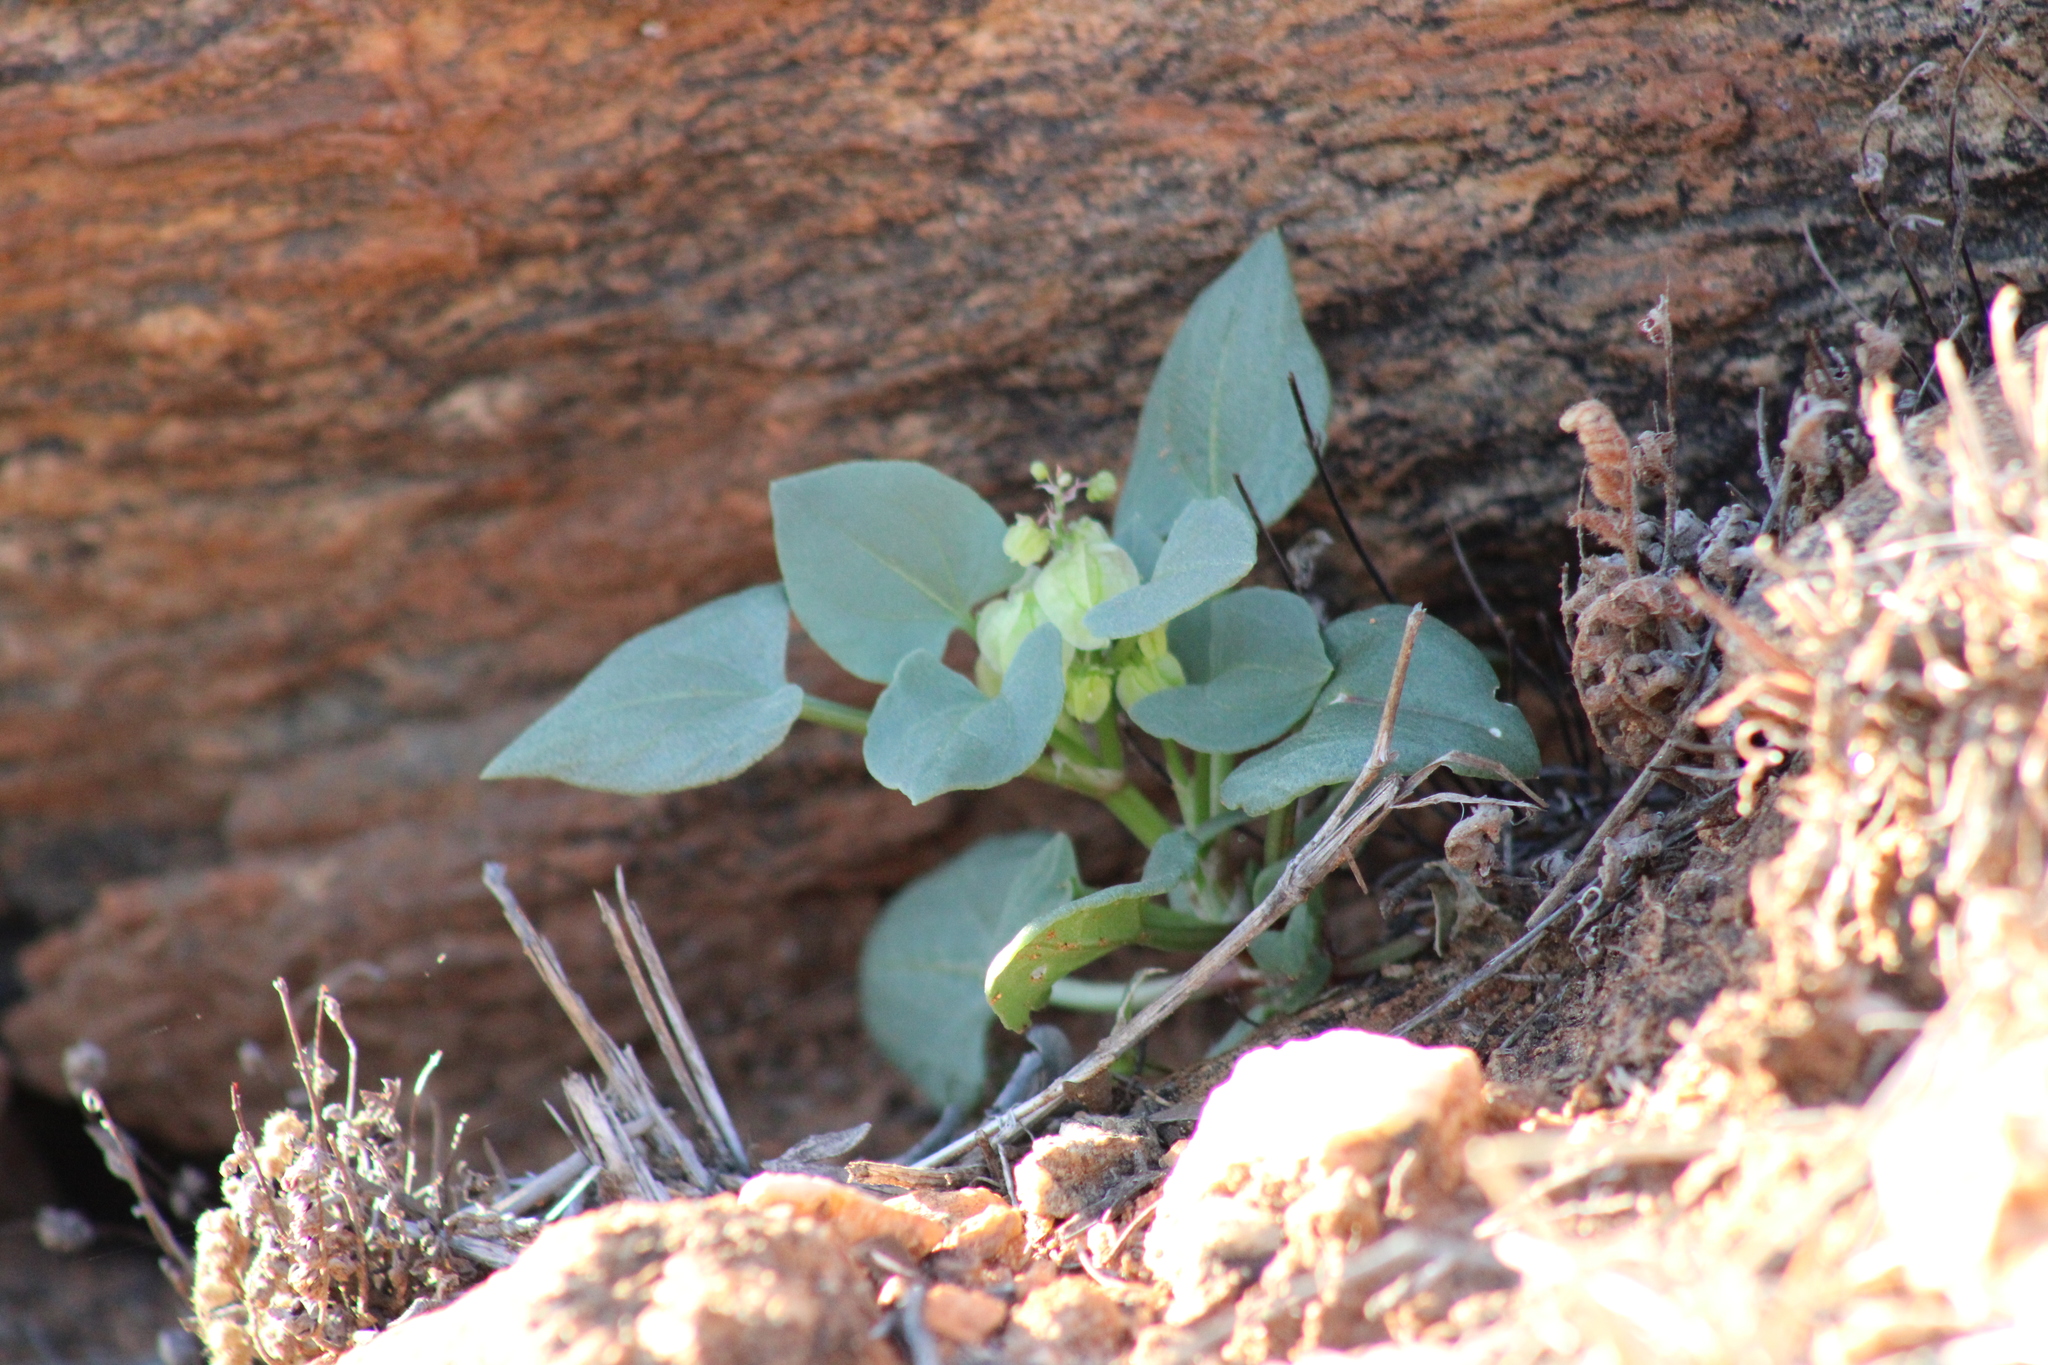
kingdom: Plantae
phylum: Tracheophyta
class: Magnoliopsida
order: Caryophyllales
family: Polygonaceae
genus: Rumex
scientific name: Rumex vesicarius
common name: Bladder dock
